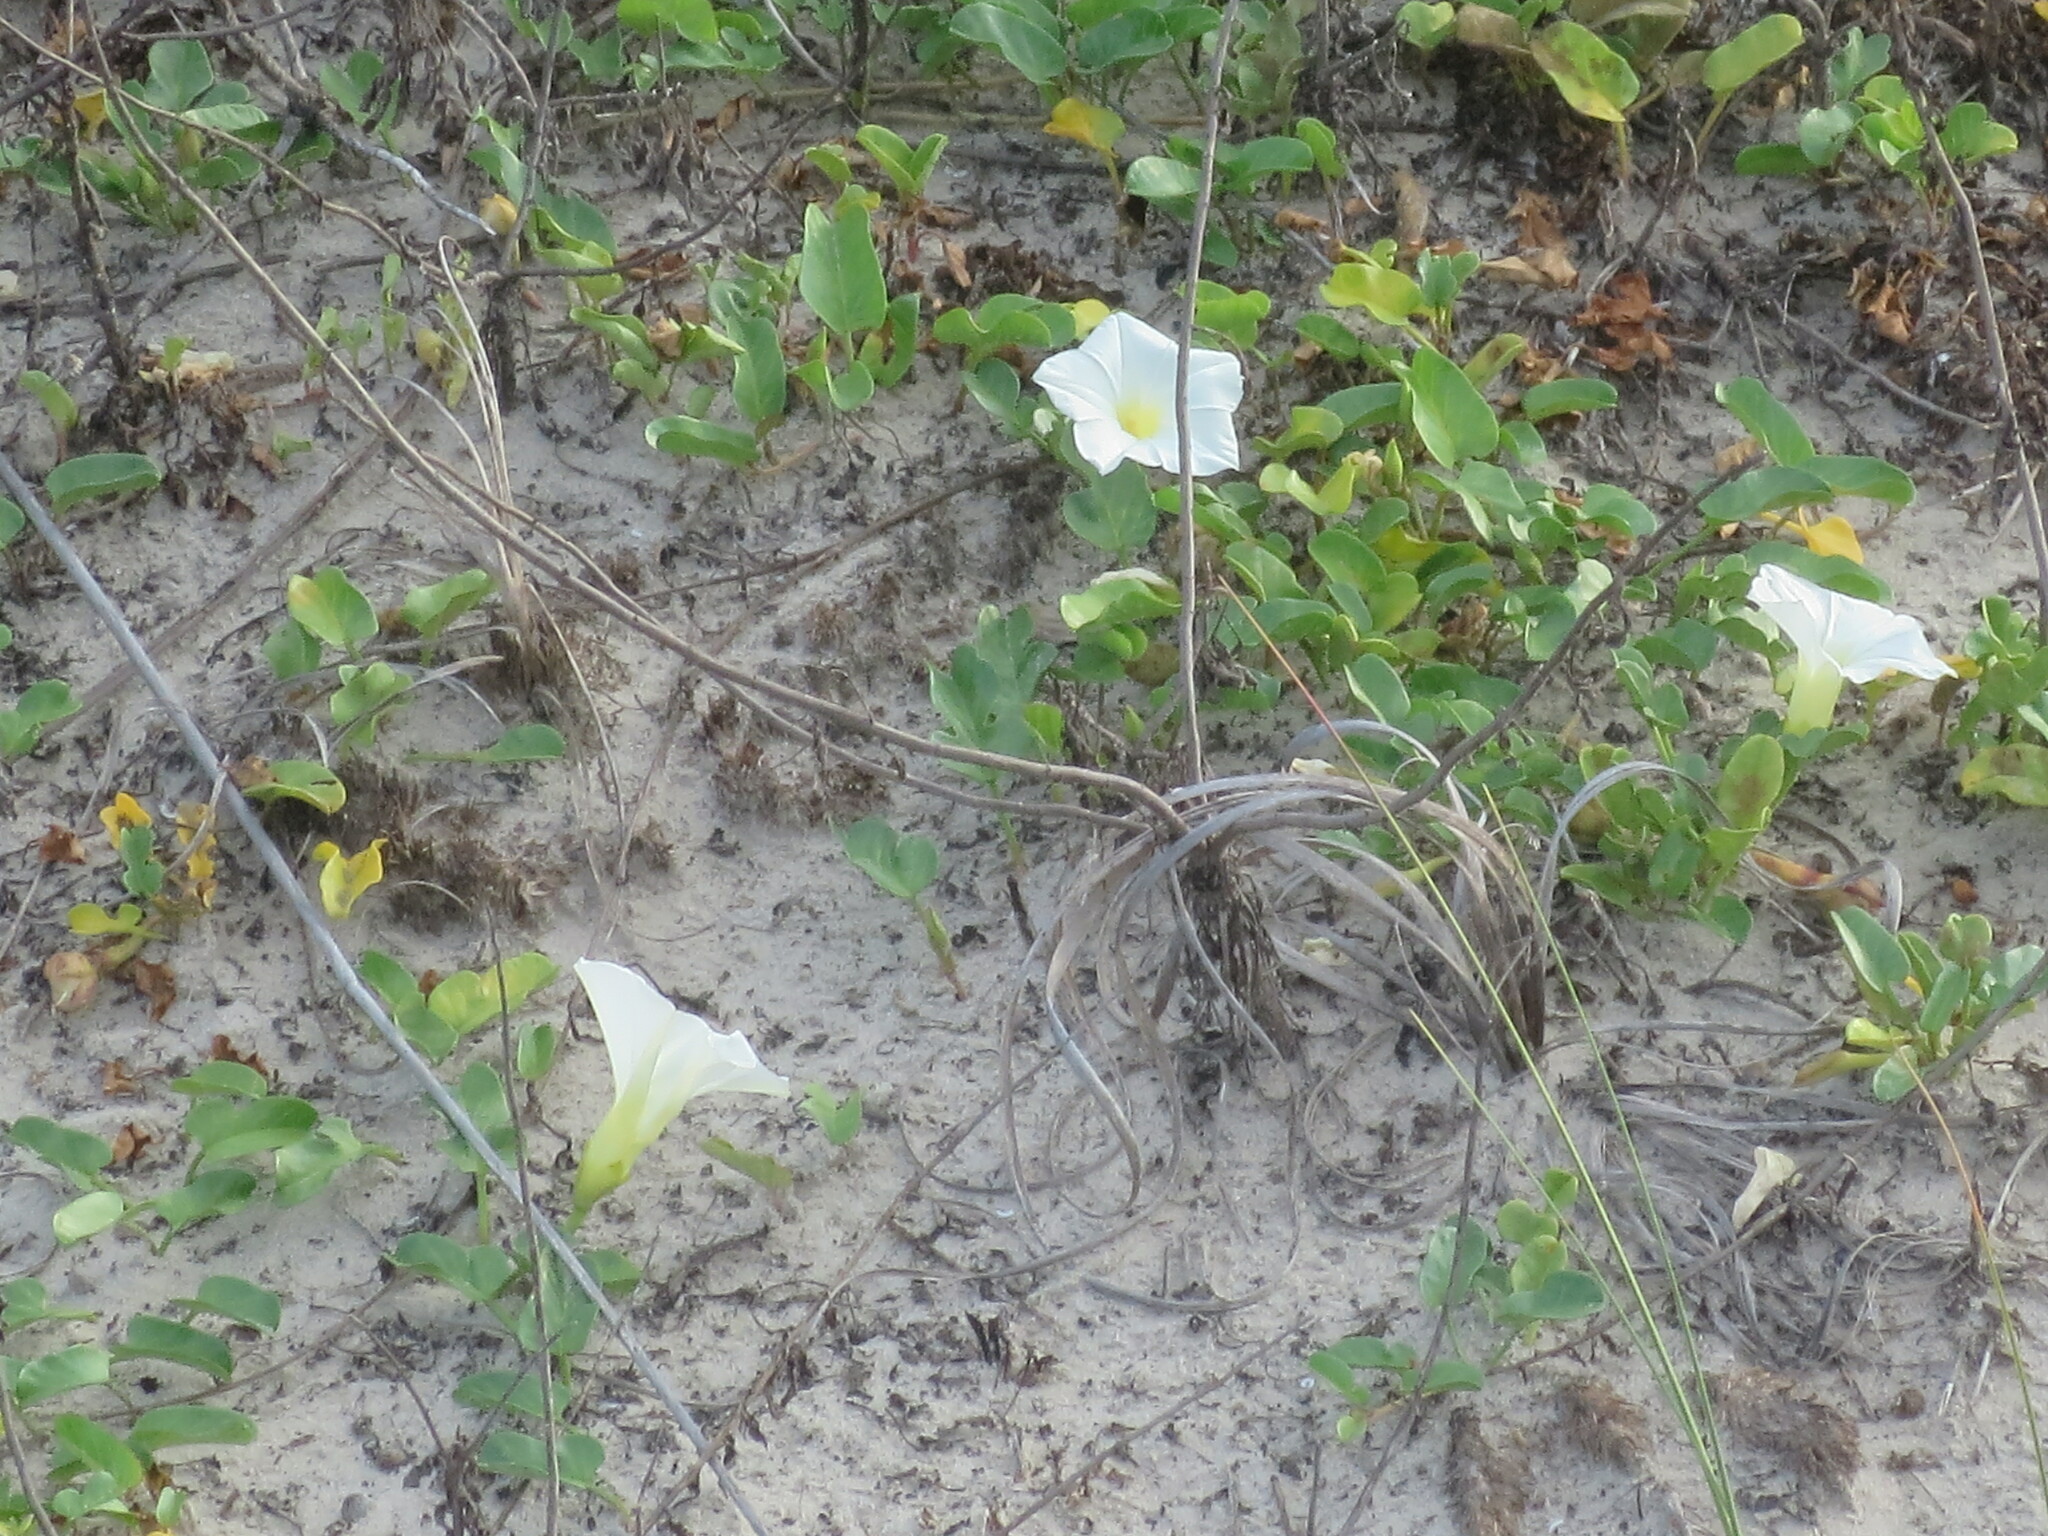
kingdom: Plantae
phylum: Tracheophyta
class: Magnoliopsida
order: Solanales
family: Convolvulaceae
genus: Ipomoea
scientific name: Ipomoea imperati
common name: Fiddle-leaf morning-glory
